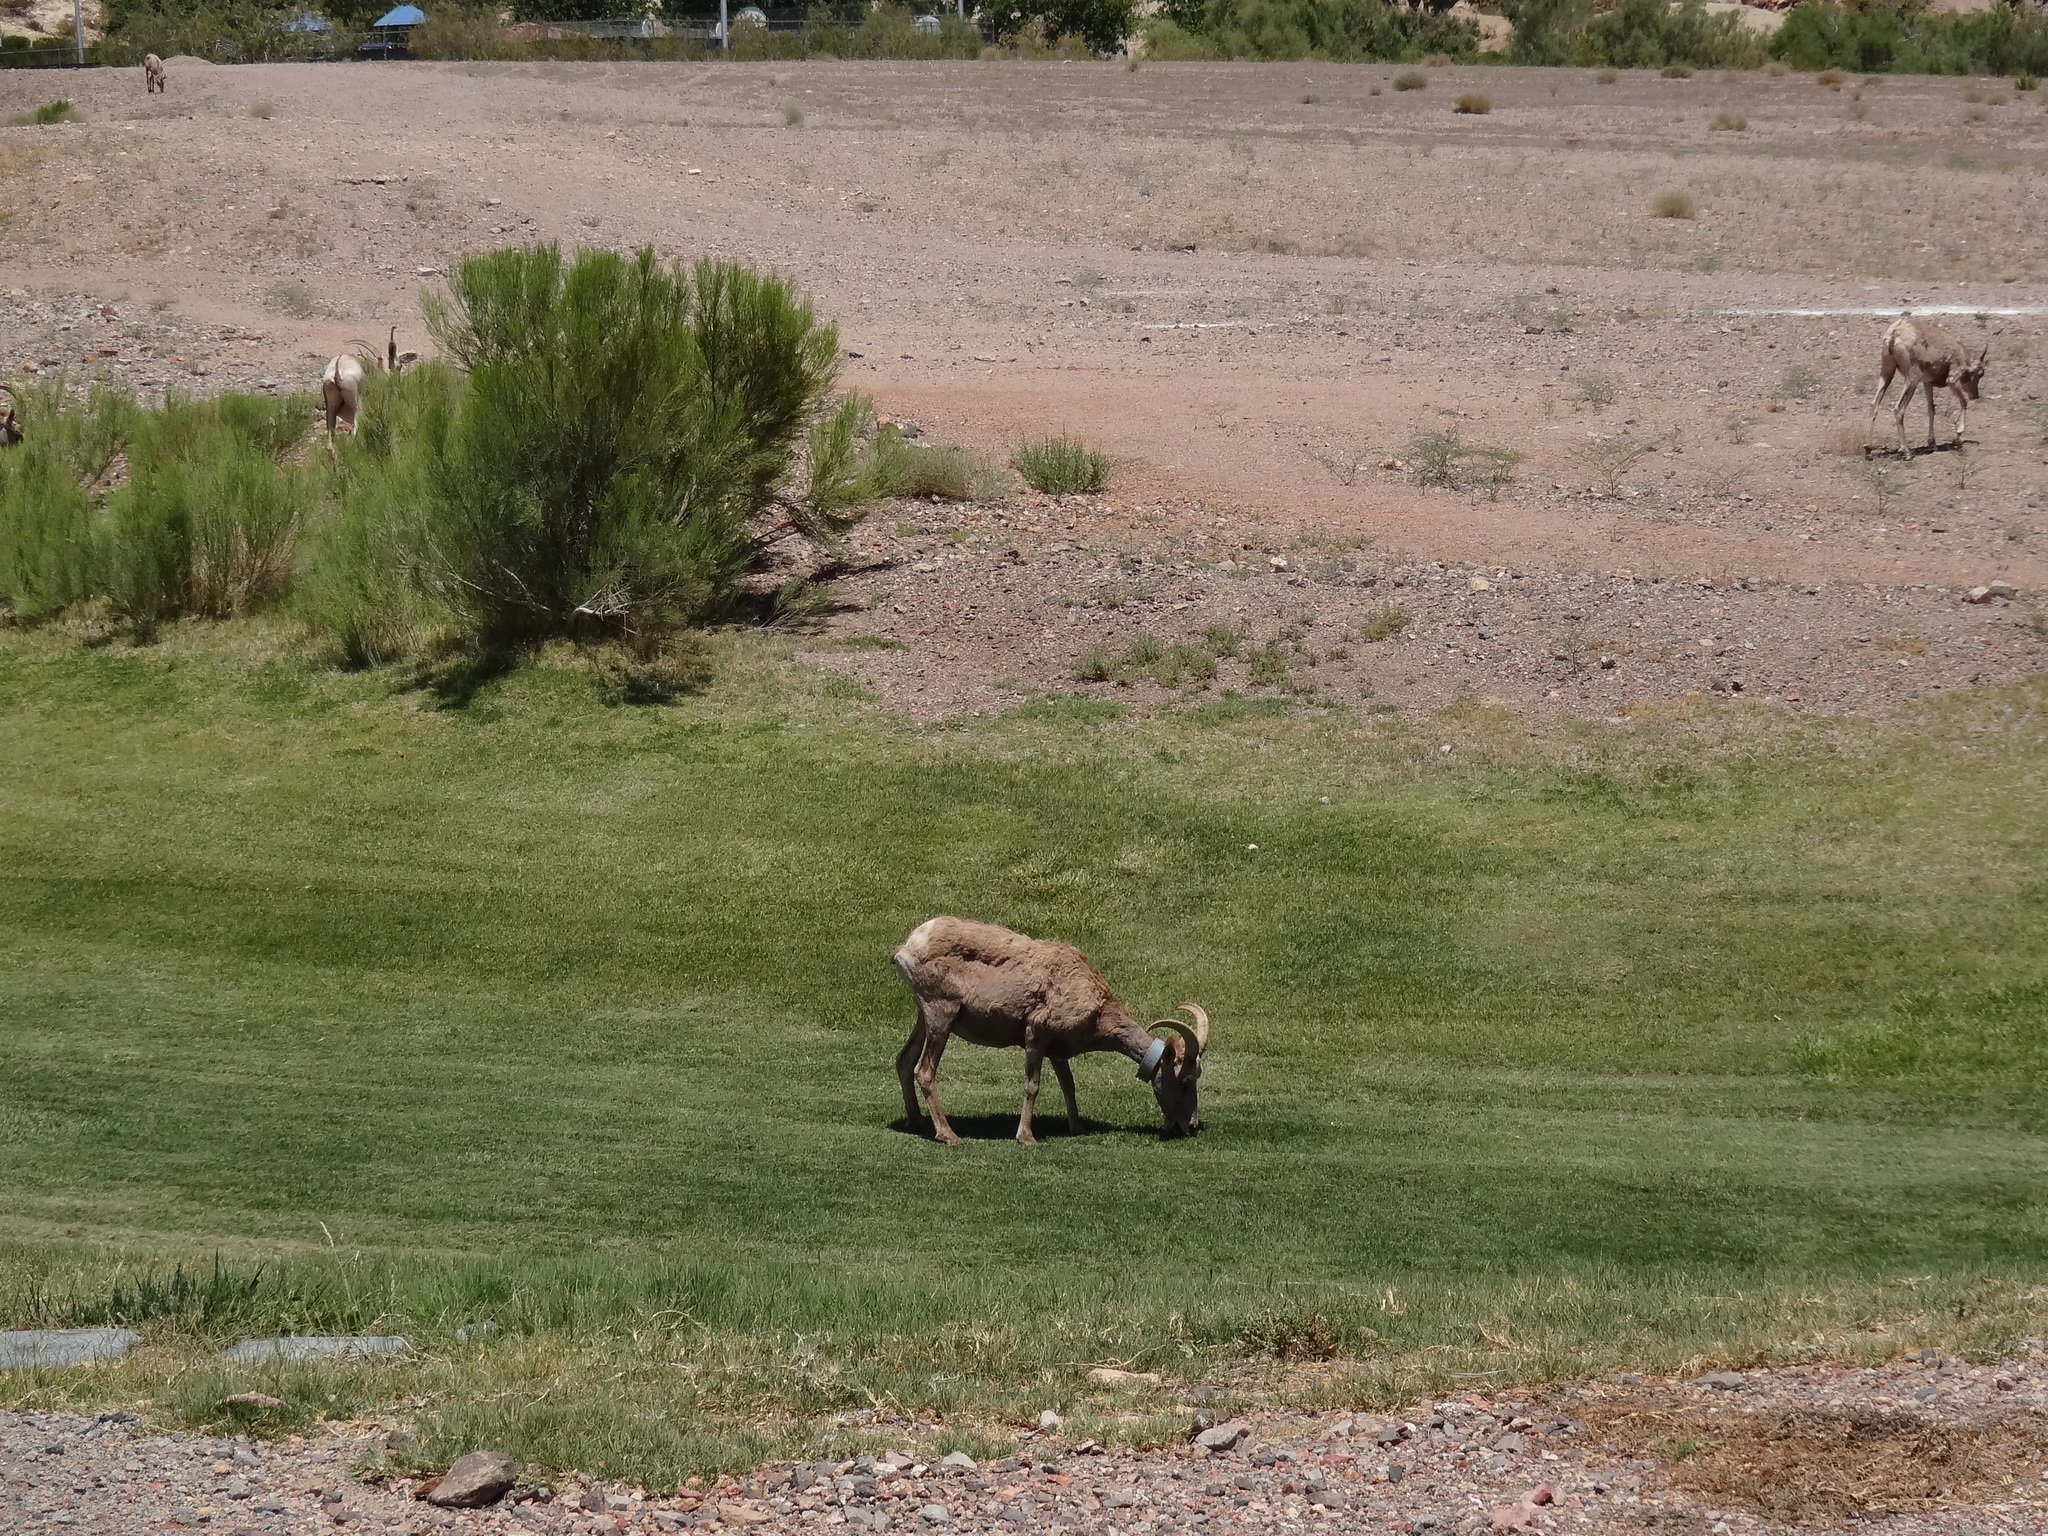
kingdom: Animalia
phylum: Chordata
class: Mammalia
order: Artiodactyla
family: Bovidae
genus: Ovis
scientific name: Ovis canadensis
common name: Bighorn sheep
